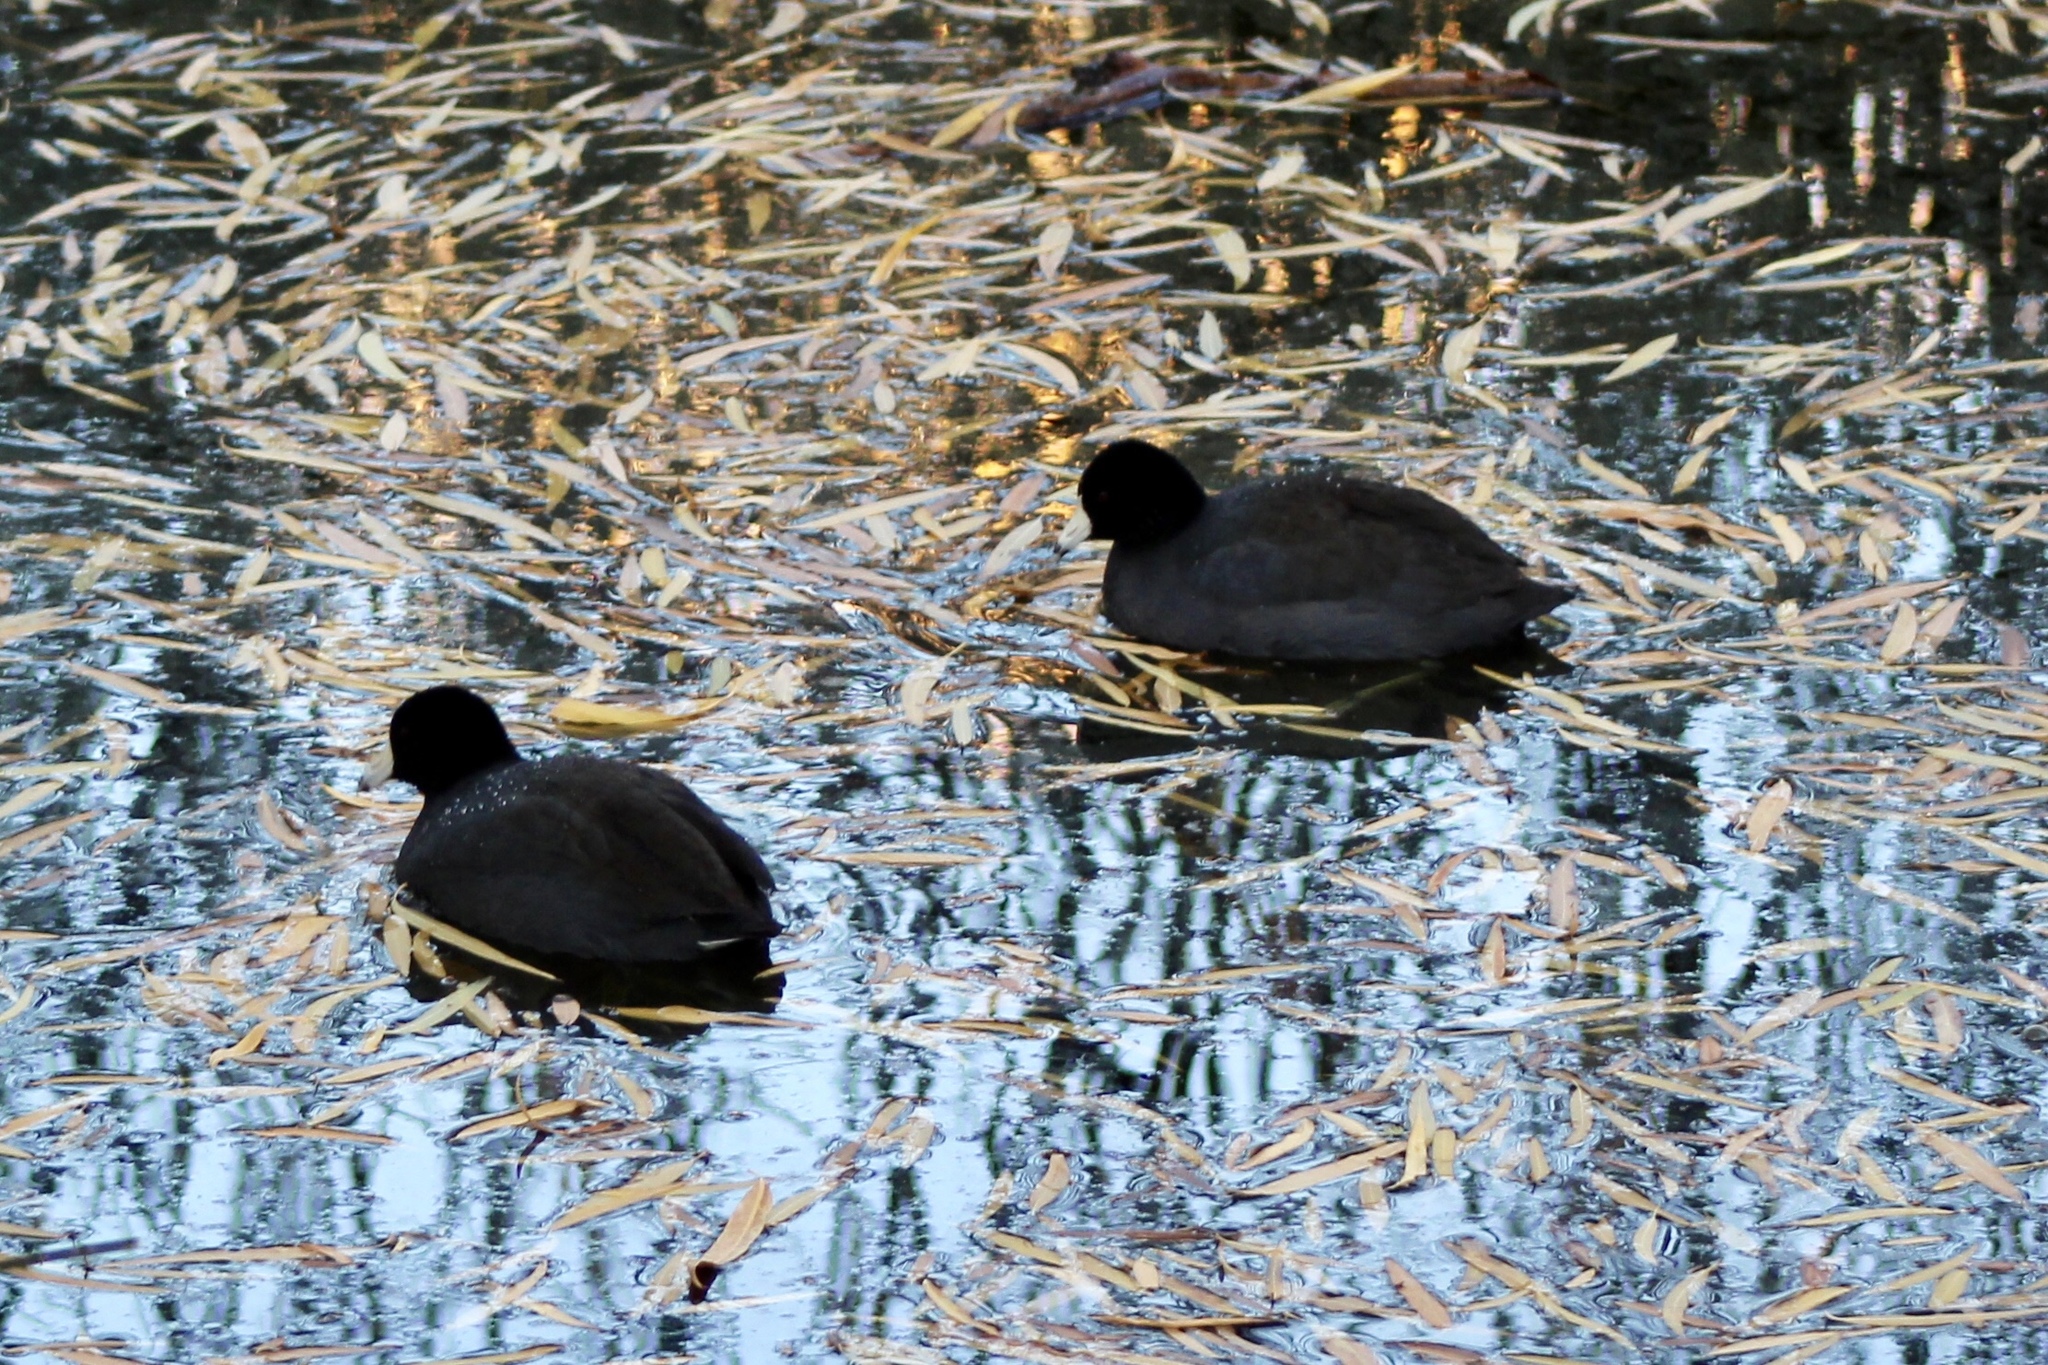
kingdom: Animalia
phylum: Chordata
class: Aves
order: Gruiformes
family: Rallidae
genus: Fulica
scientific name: Fulica americana
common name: American coot
